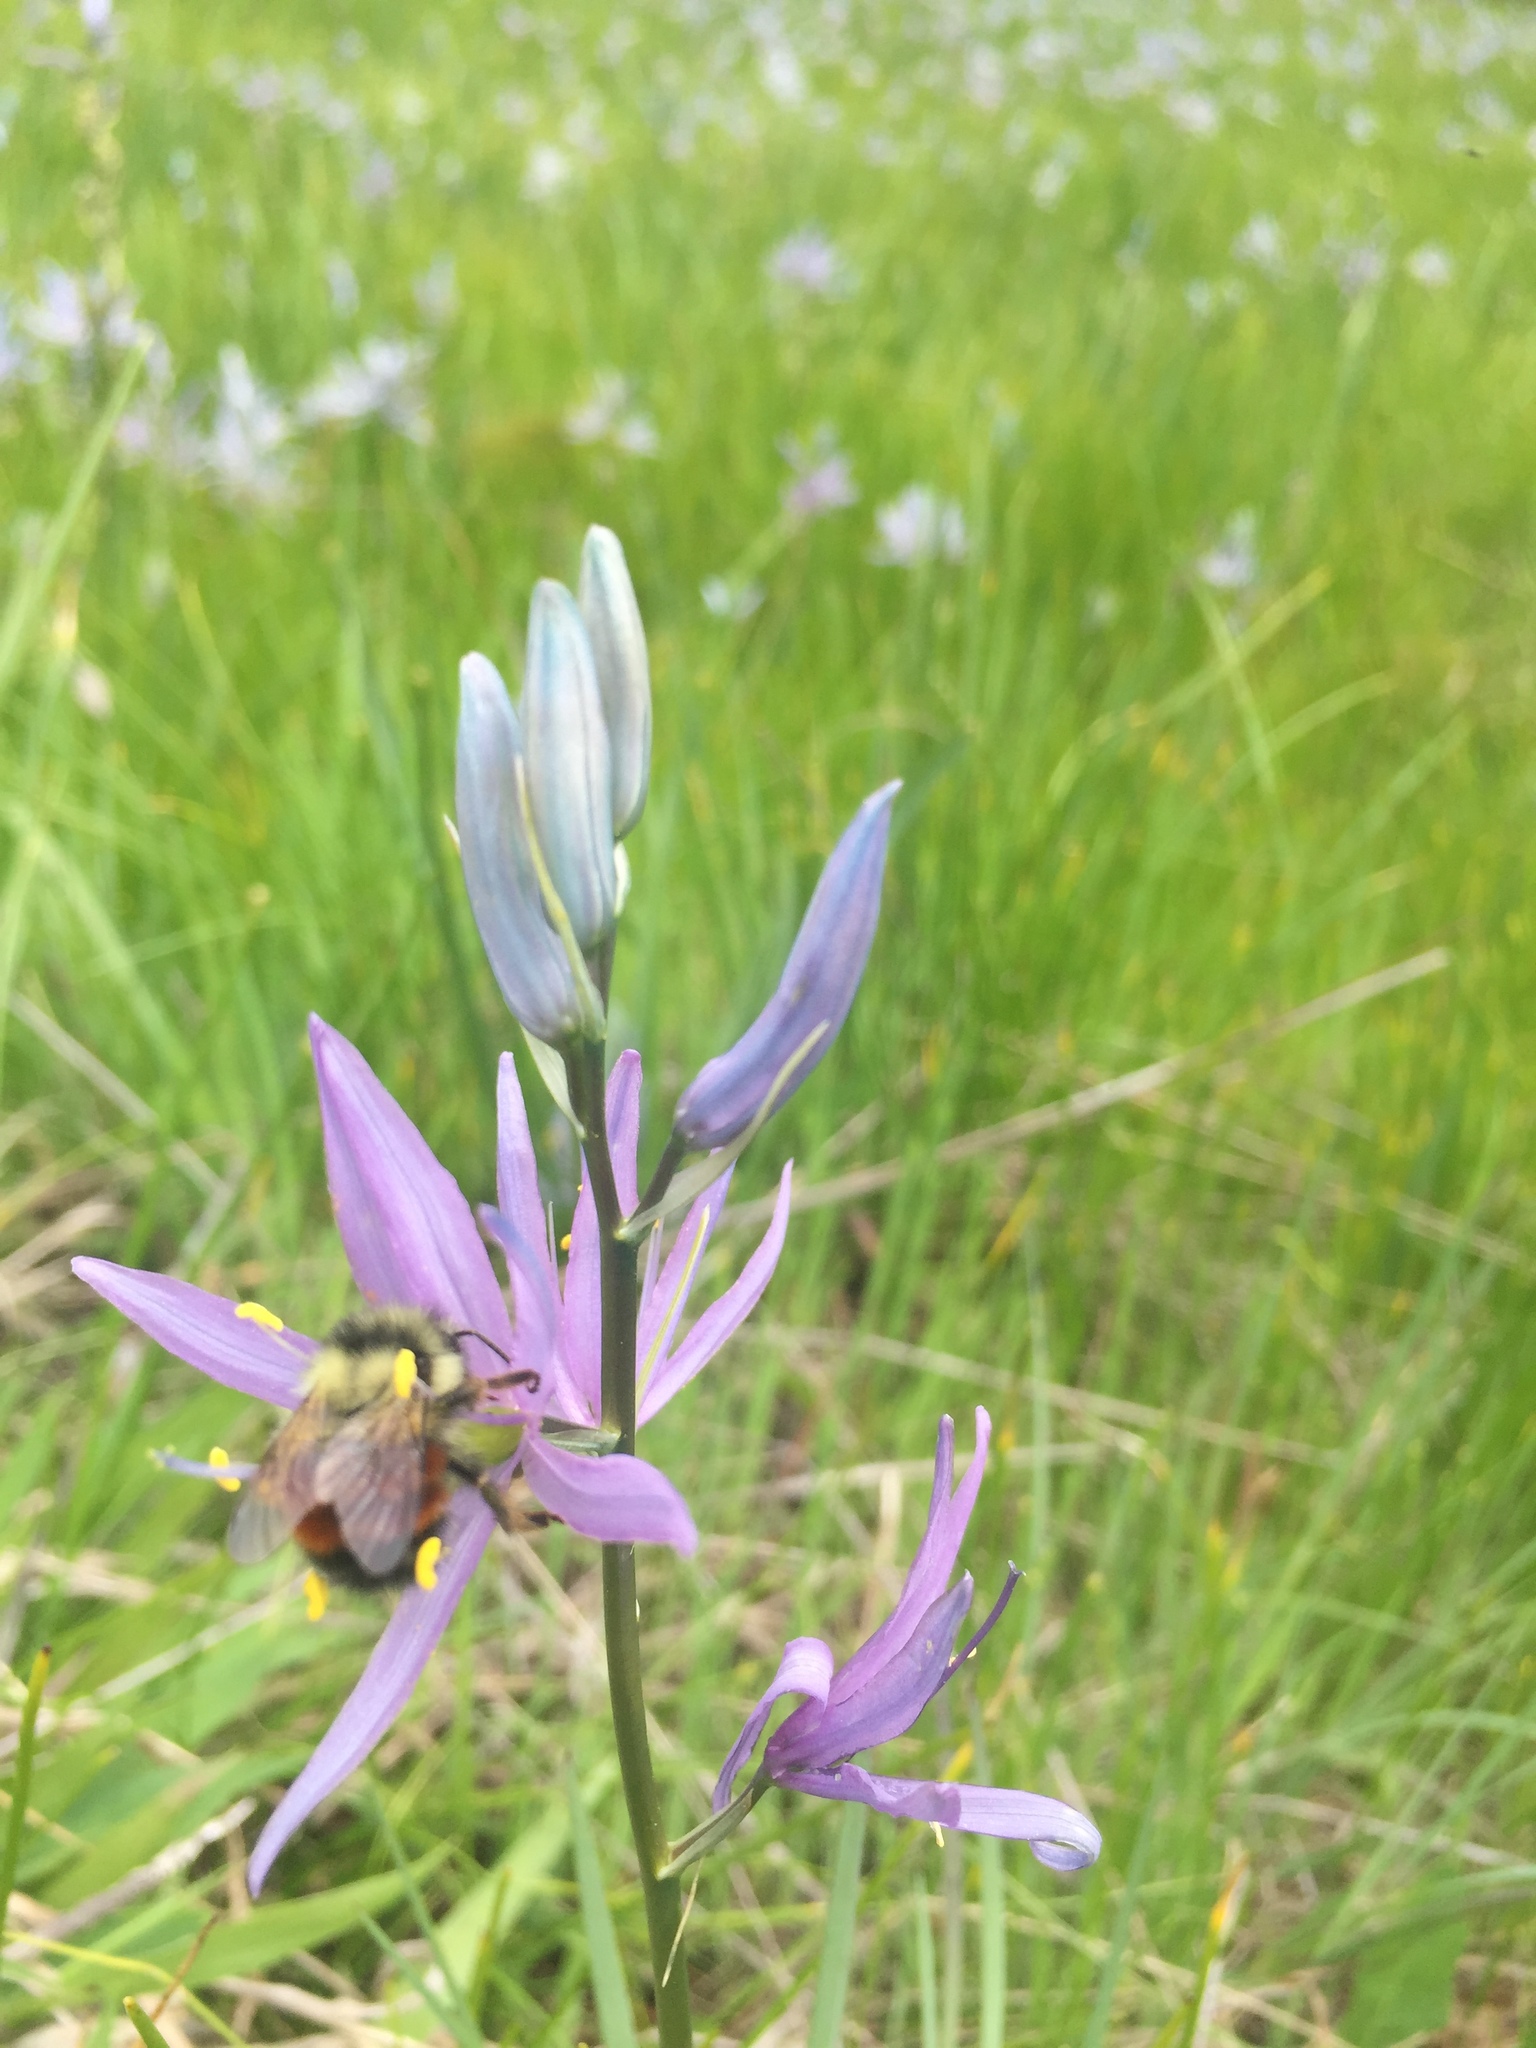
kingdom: Plantae
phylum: Tracheophyta
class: Liliopsida
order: Asparagales
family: Asparagaceae
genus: Camassia
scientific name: Camassia quamash
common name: Common camas
